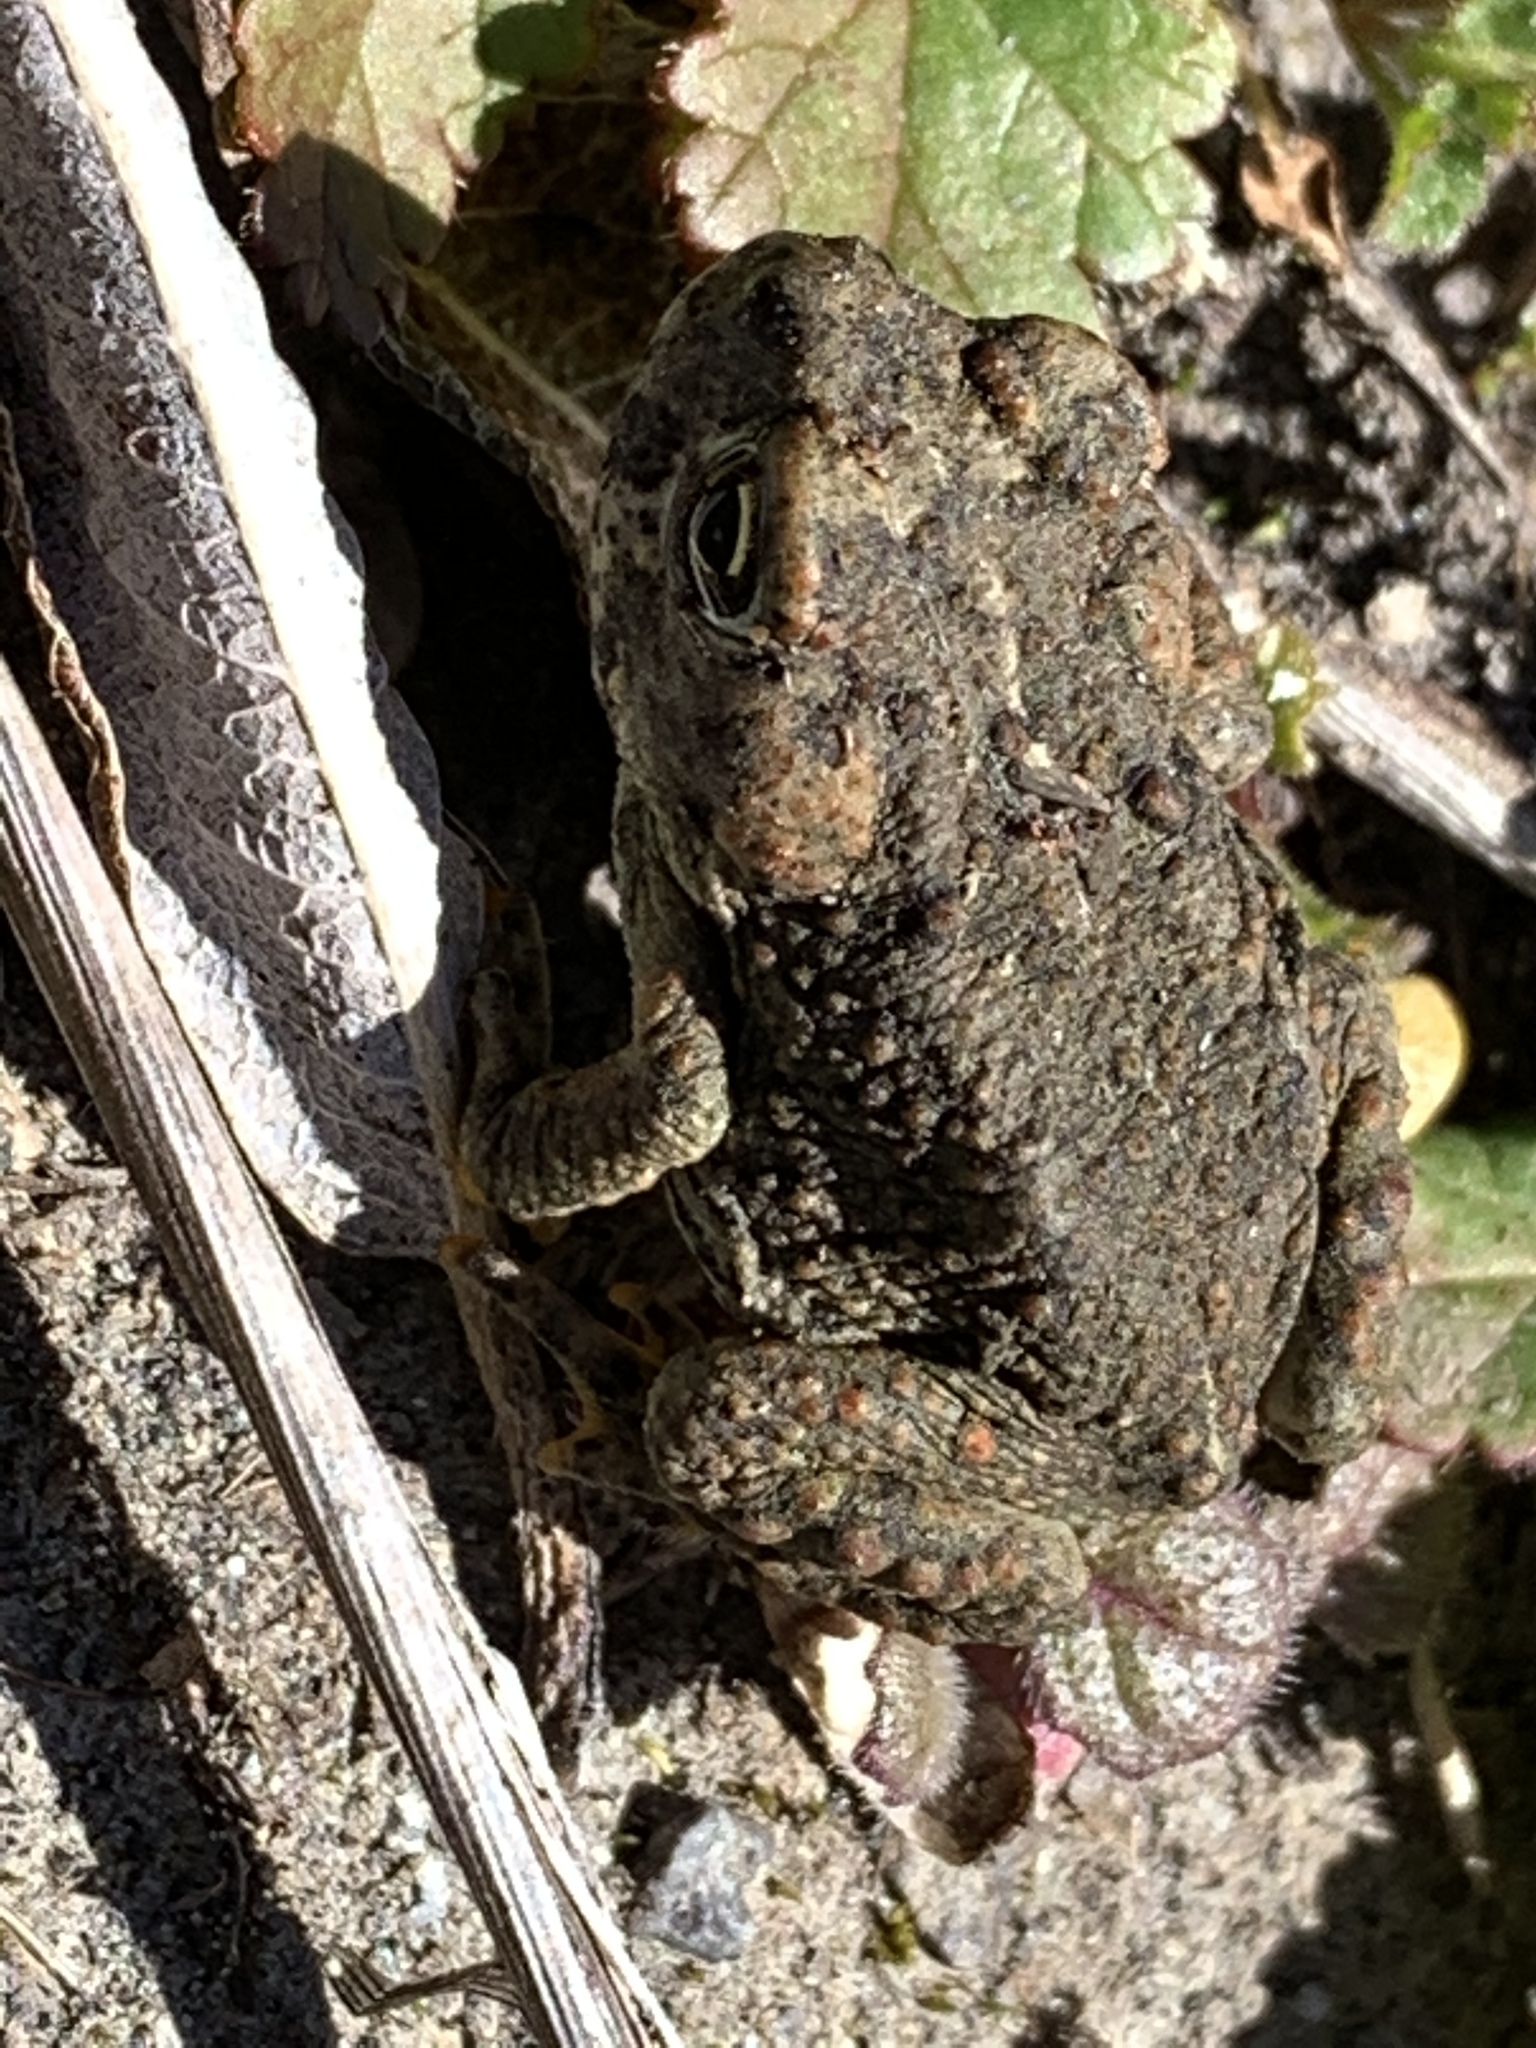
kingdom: Animalia
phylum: Chordata
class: Amphibia
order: Anura
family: Bufonidae
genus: Anaxyrus
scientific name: Anaxyrus boreas
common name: Western toad
